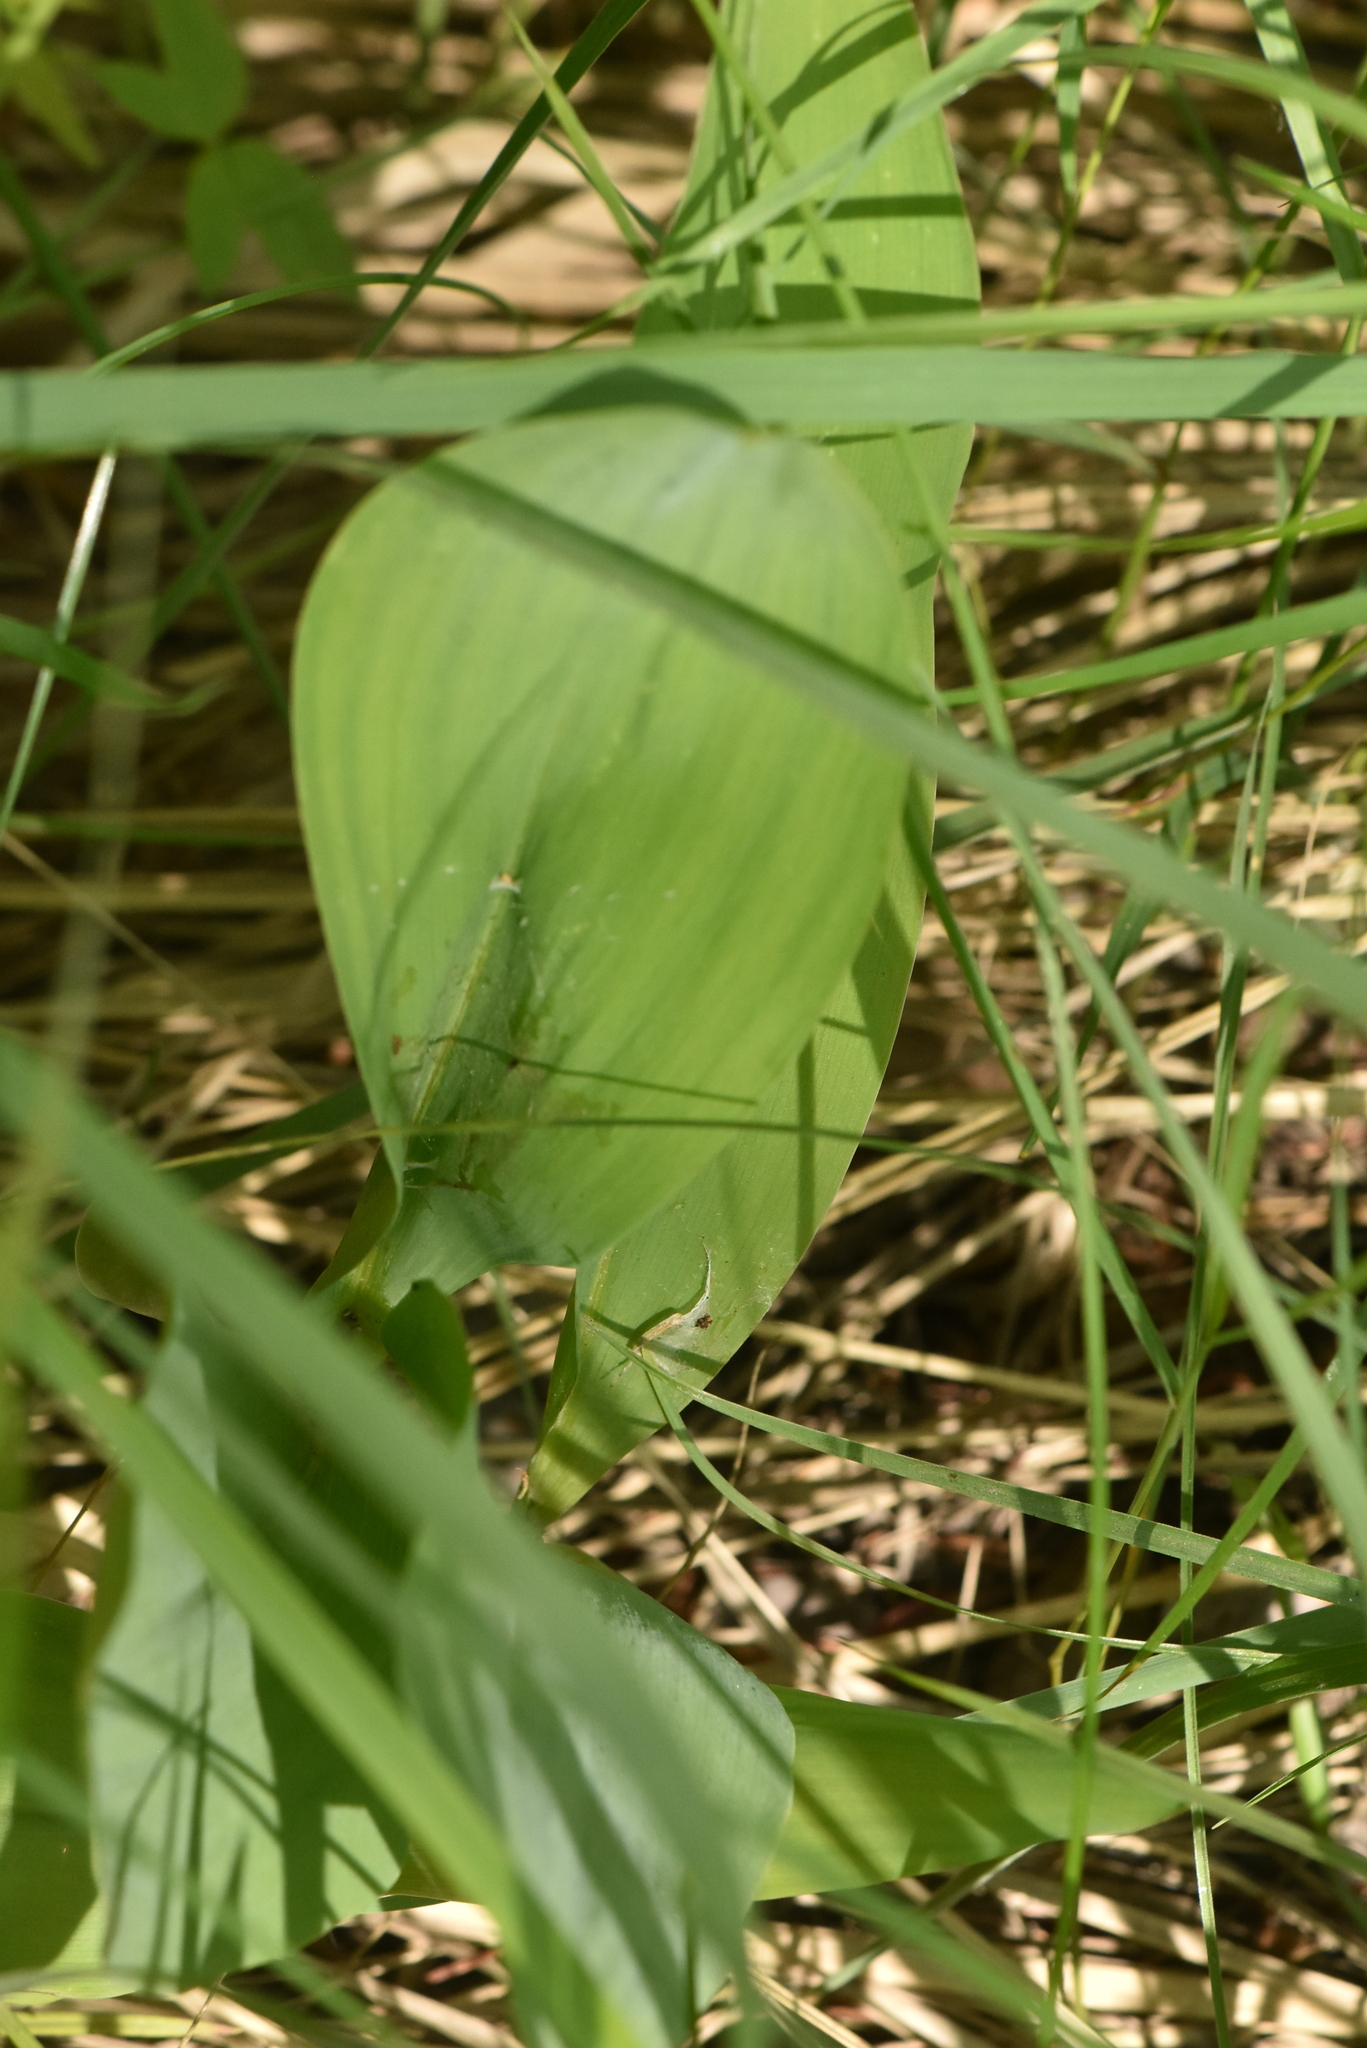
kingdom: Plantae
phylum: Tracheophyta
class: Liliopsida
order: Asparagales
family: Asparagaceae
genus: Convallaria
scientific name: Convallaria majalis
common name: Lily-of-the-valley
